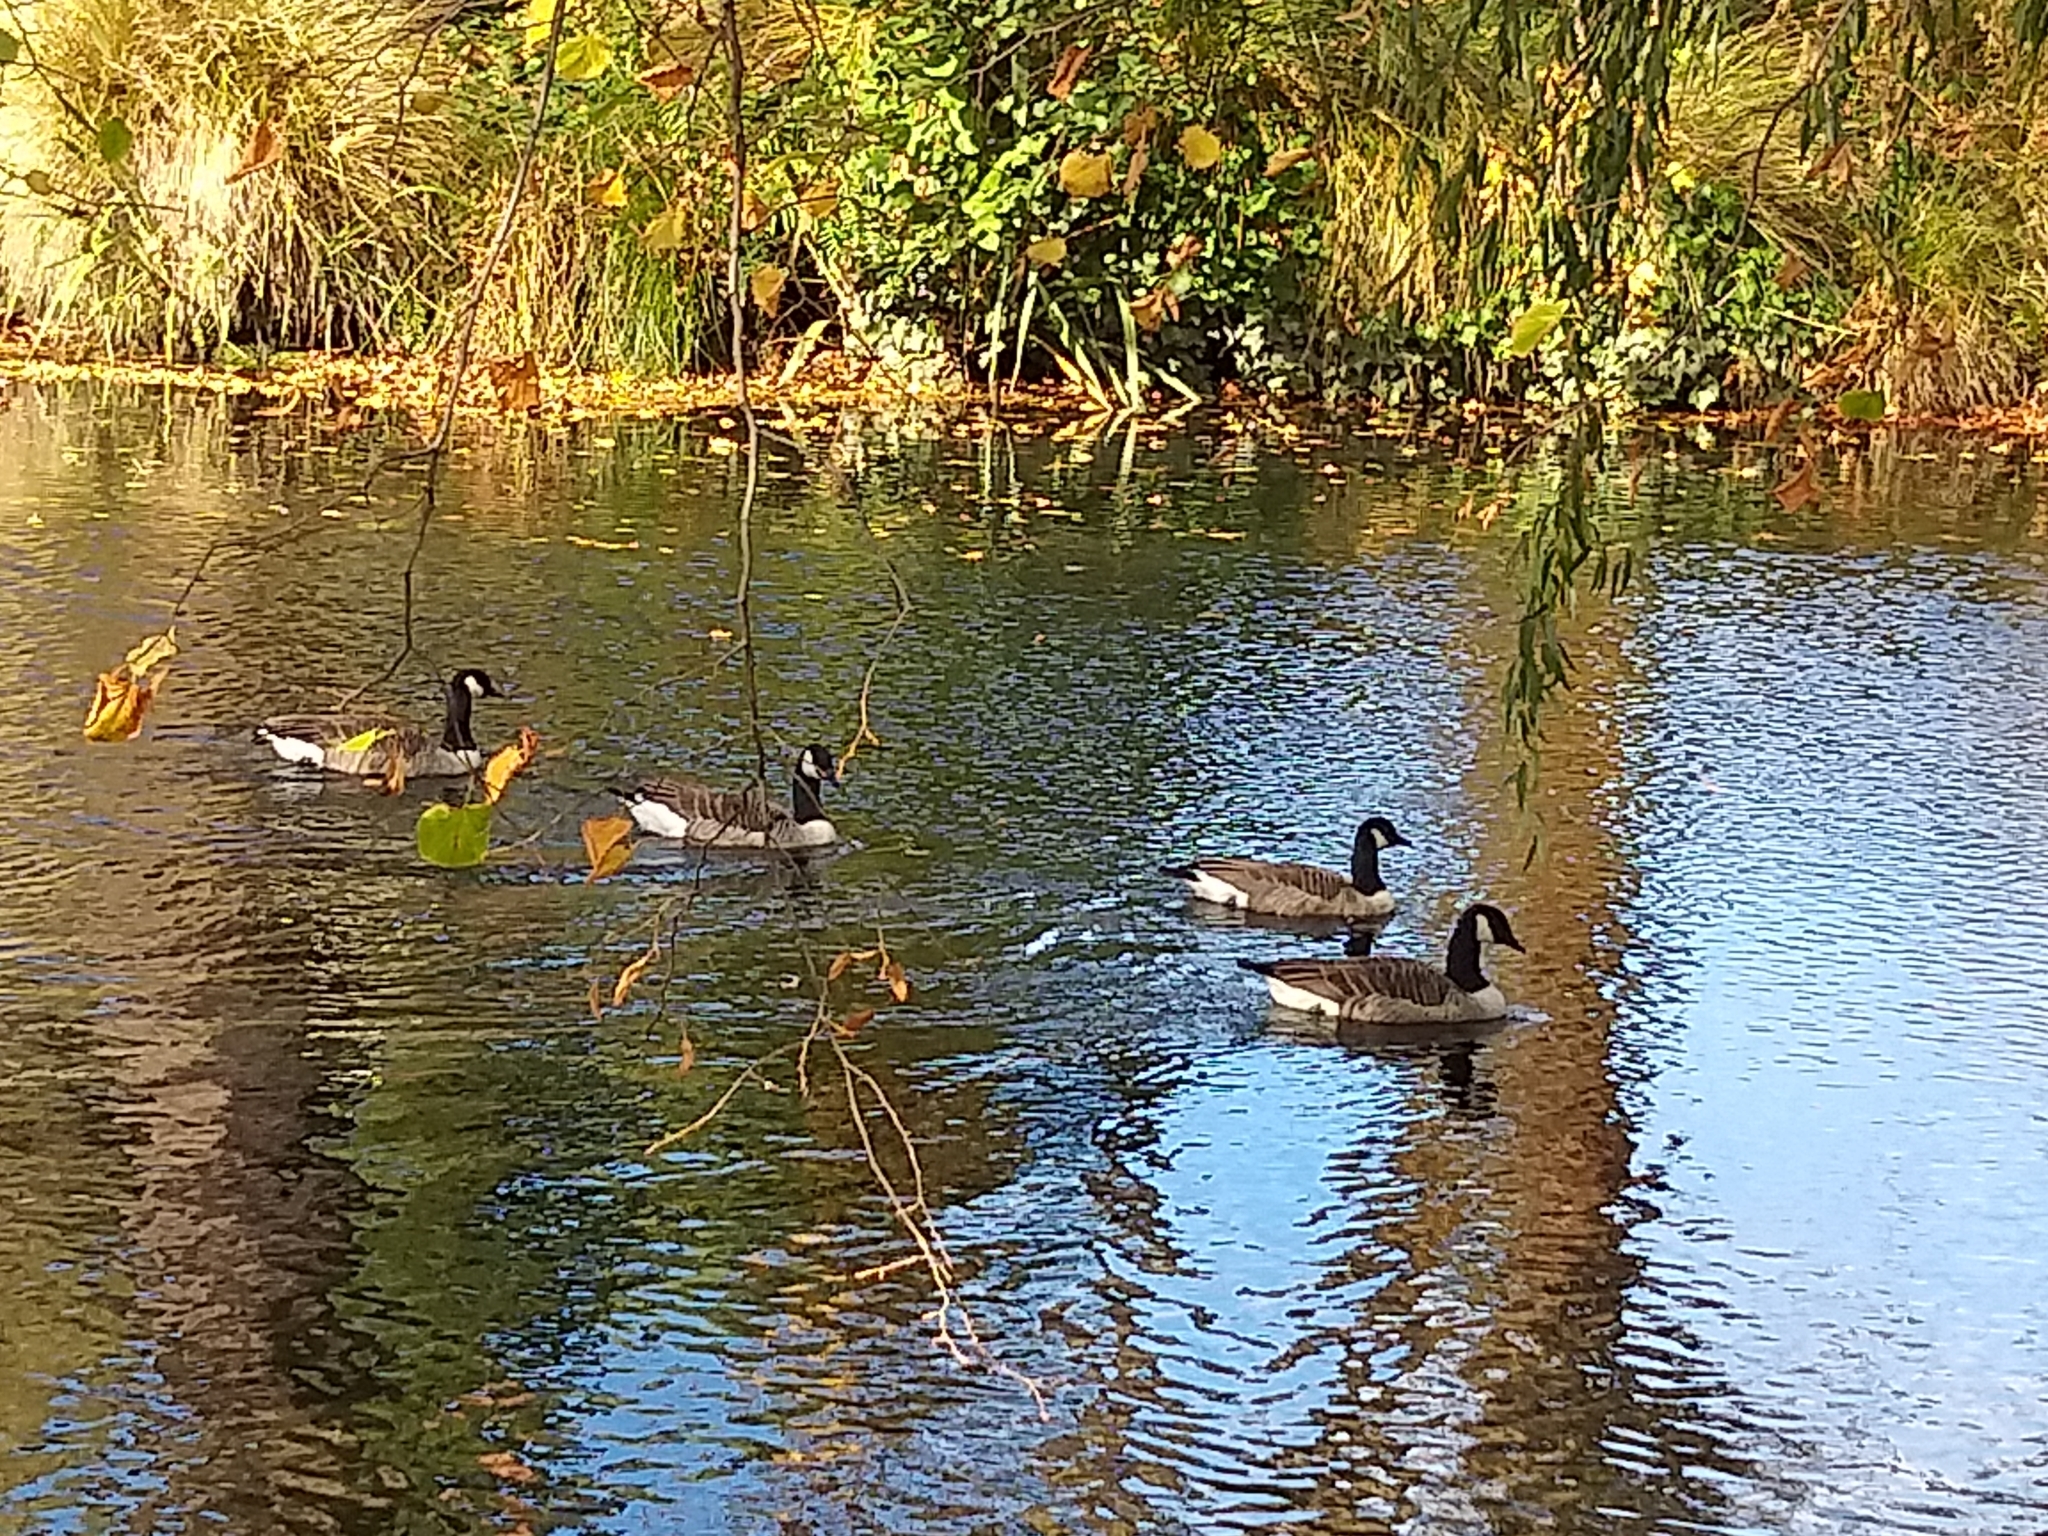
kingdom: Animalia
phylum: Chordata
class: Aves
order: Anseriformes
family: Anatidae
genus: Branta
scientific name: Branta canadensis
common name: Canada goose
